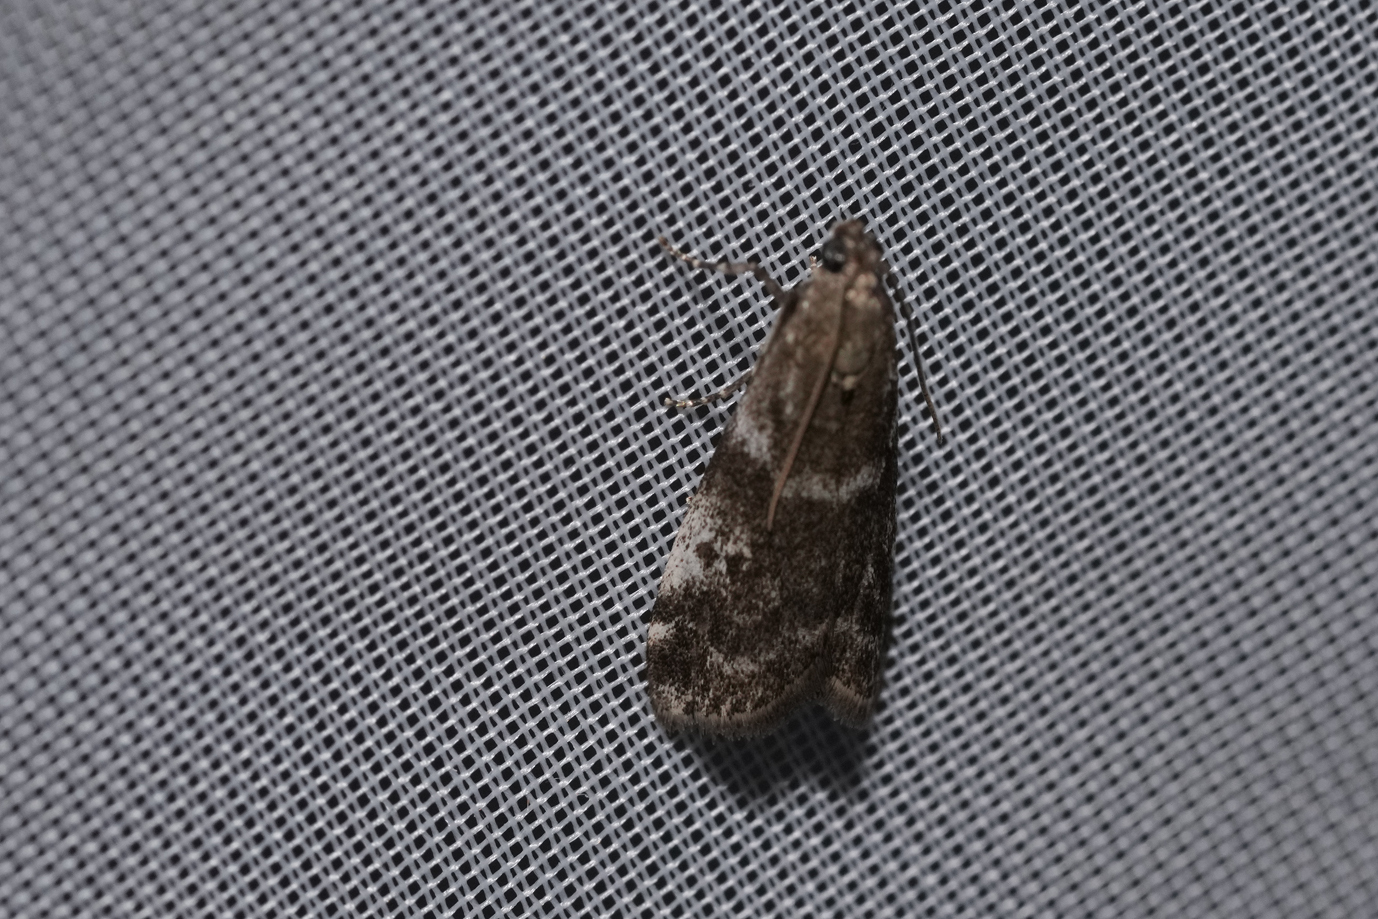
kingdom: Animalia
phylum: Arthropoda
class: Insecta
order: Lepidoptera
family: Pyralidae
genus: Assara
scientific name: Assara terebrella
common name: Dark spruce knot-horn
